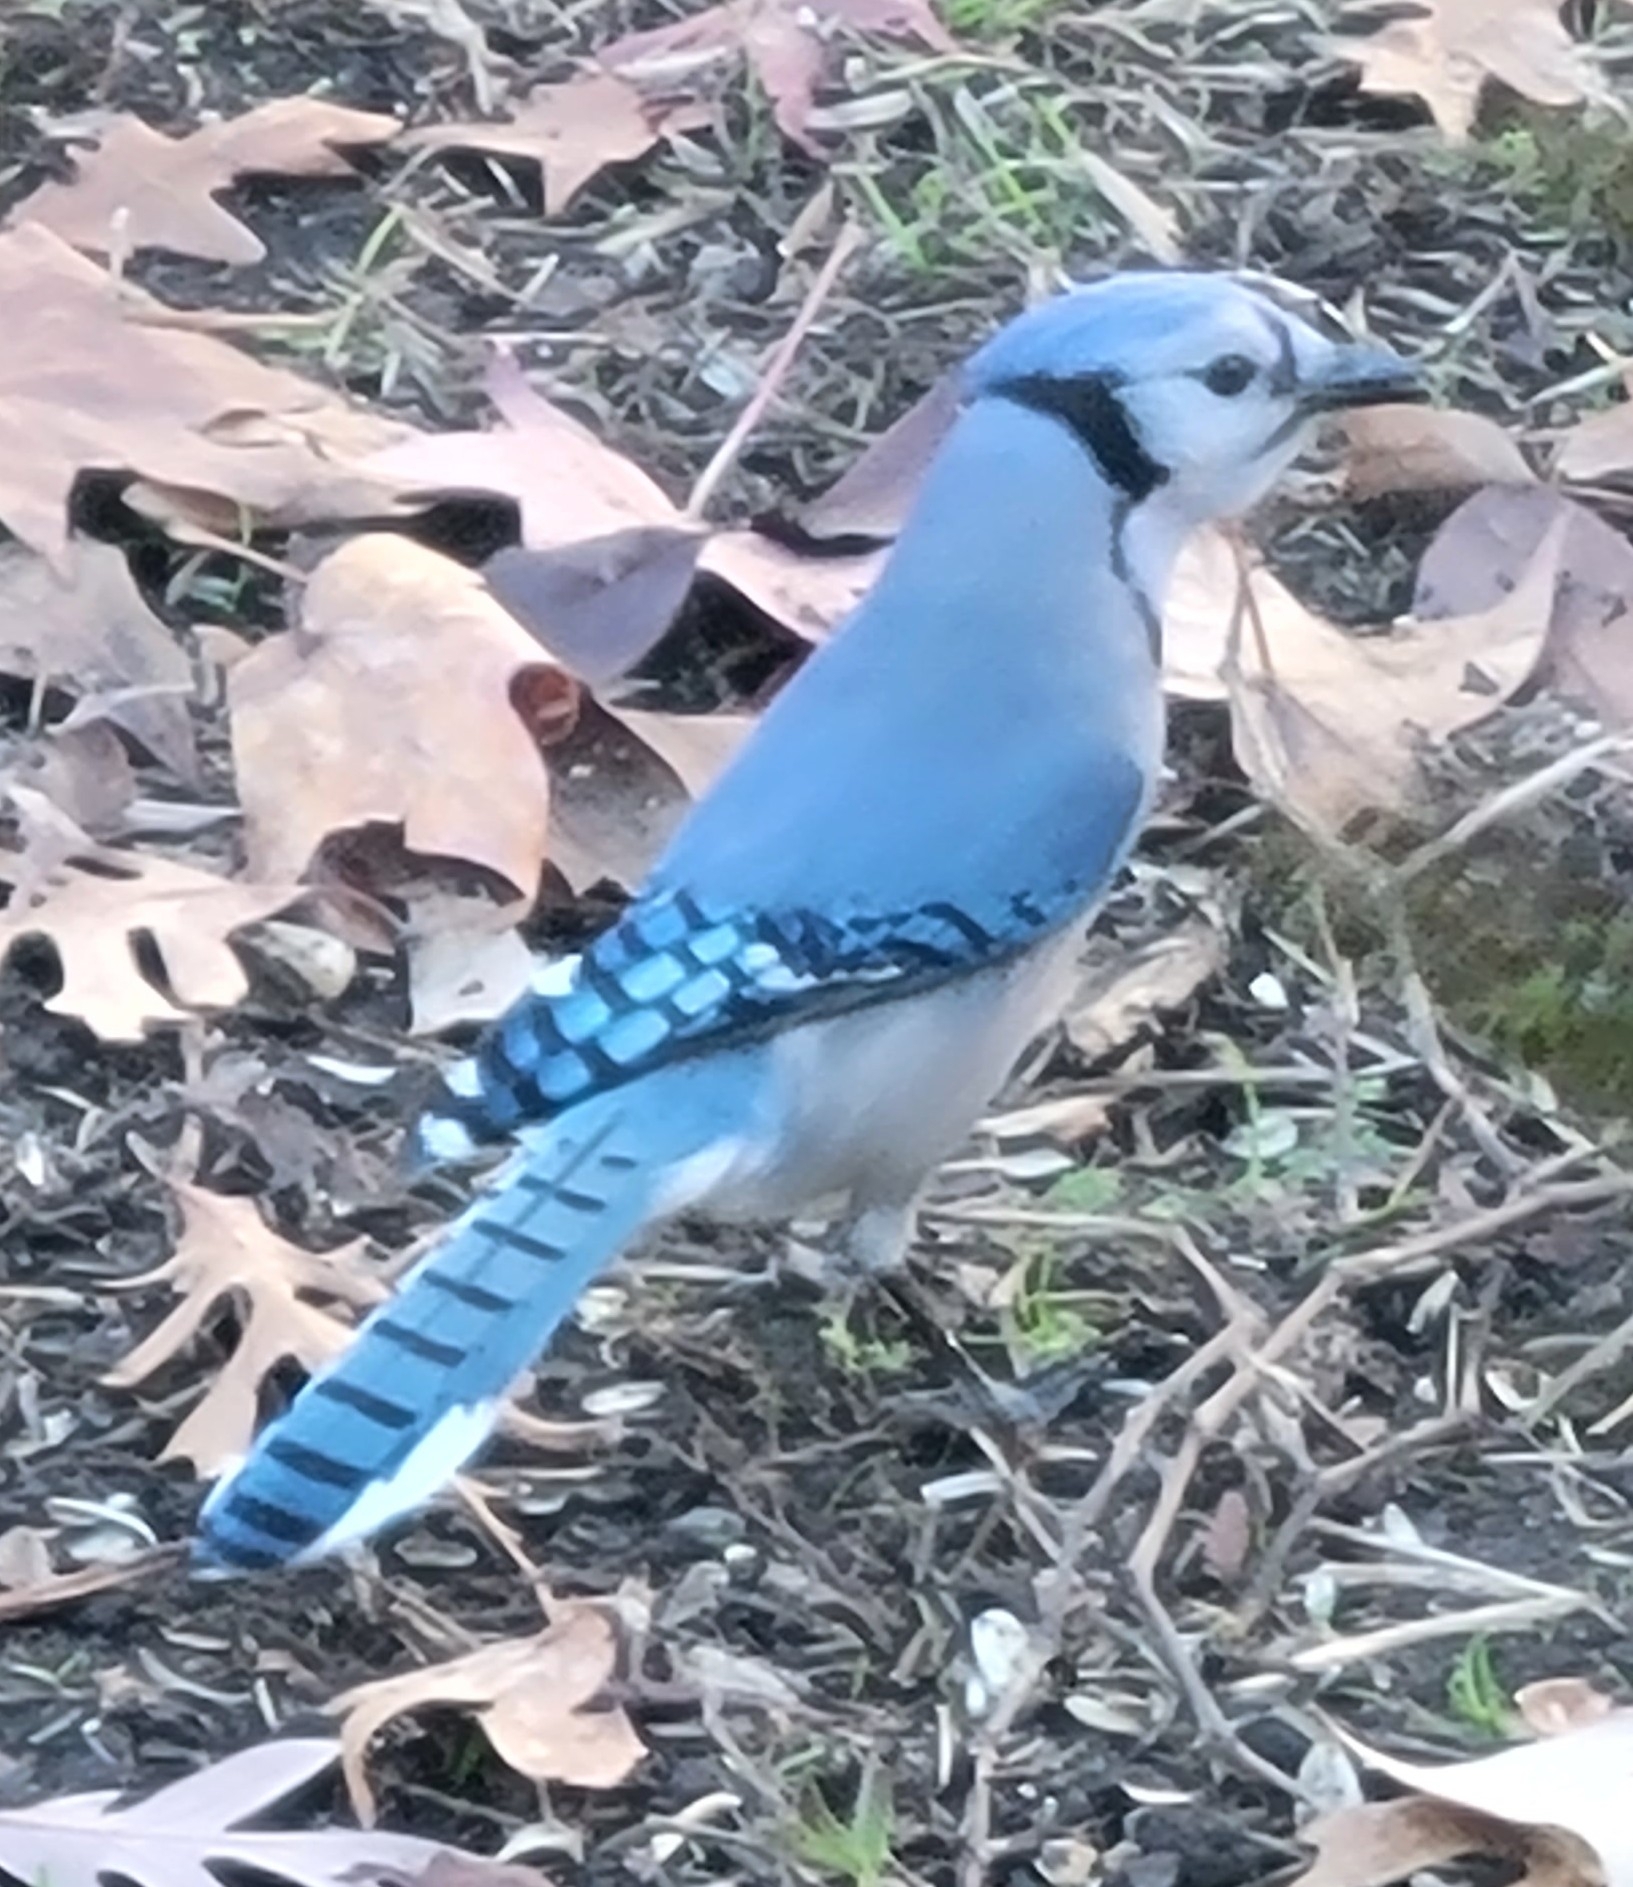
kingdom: Animalia
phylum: Chordata
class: Aves
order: Passeriformes
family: Corvidae
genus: Cyanocitta
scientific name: Cyanocitta cristata
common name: Blue jay
